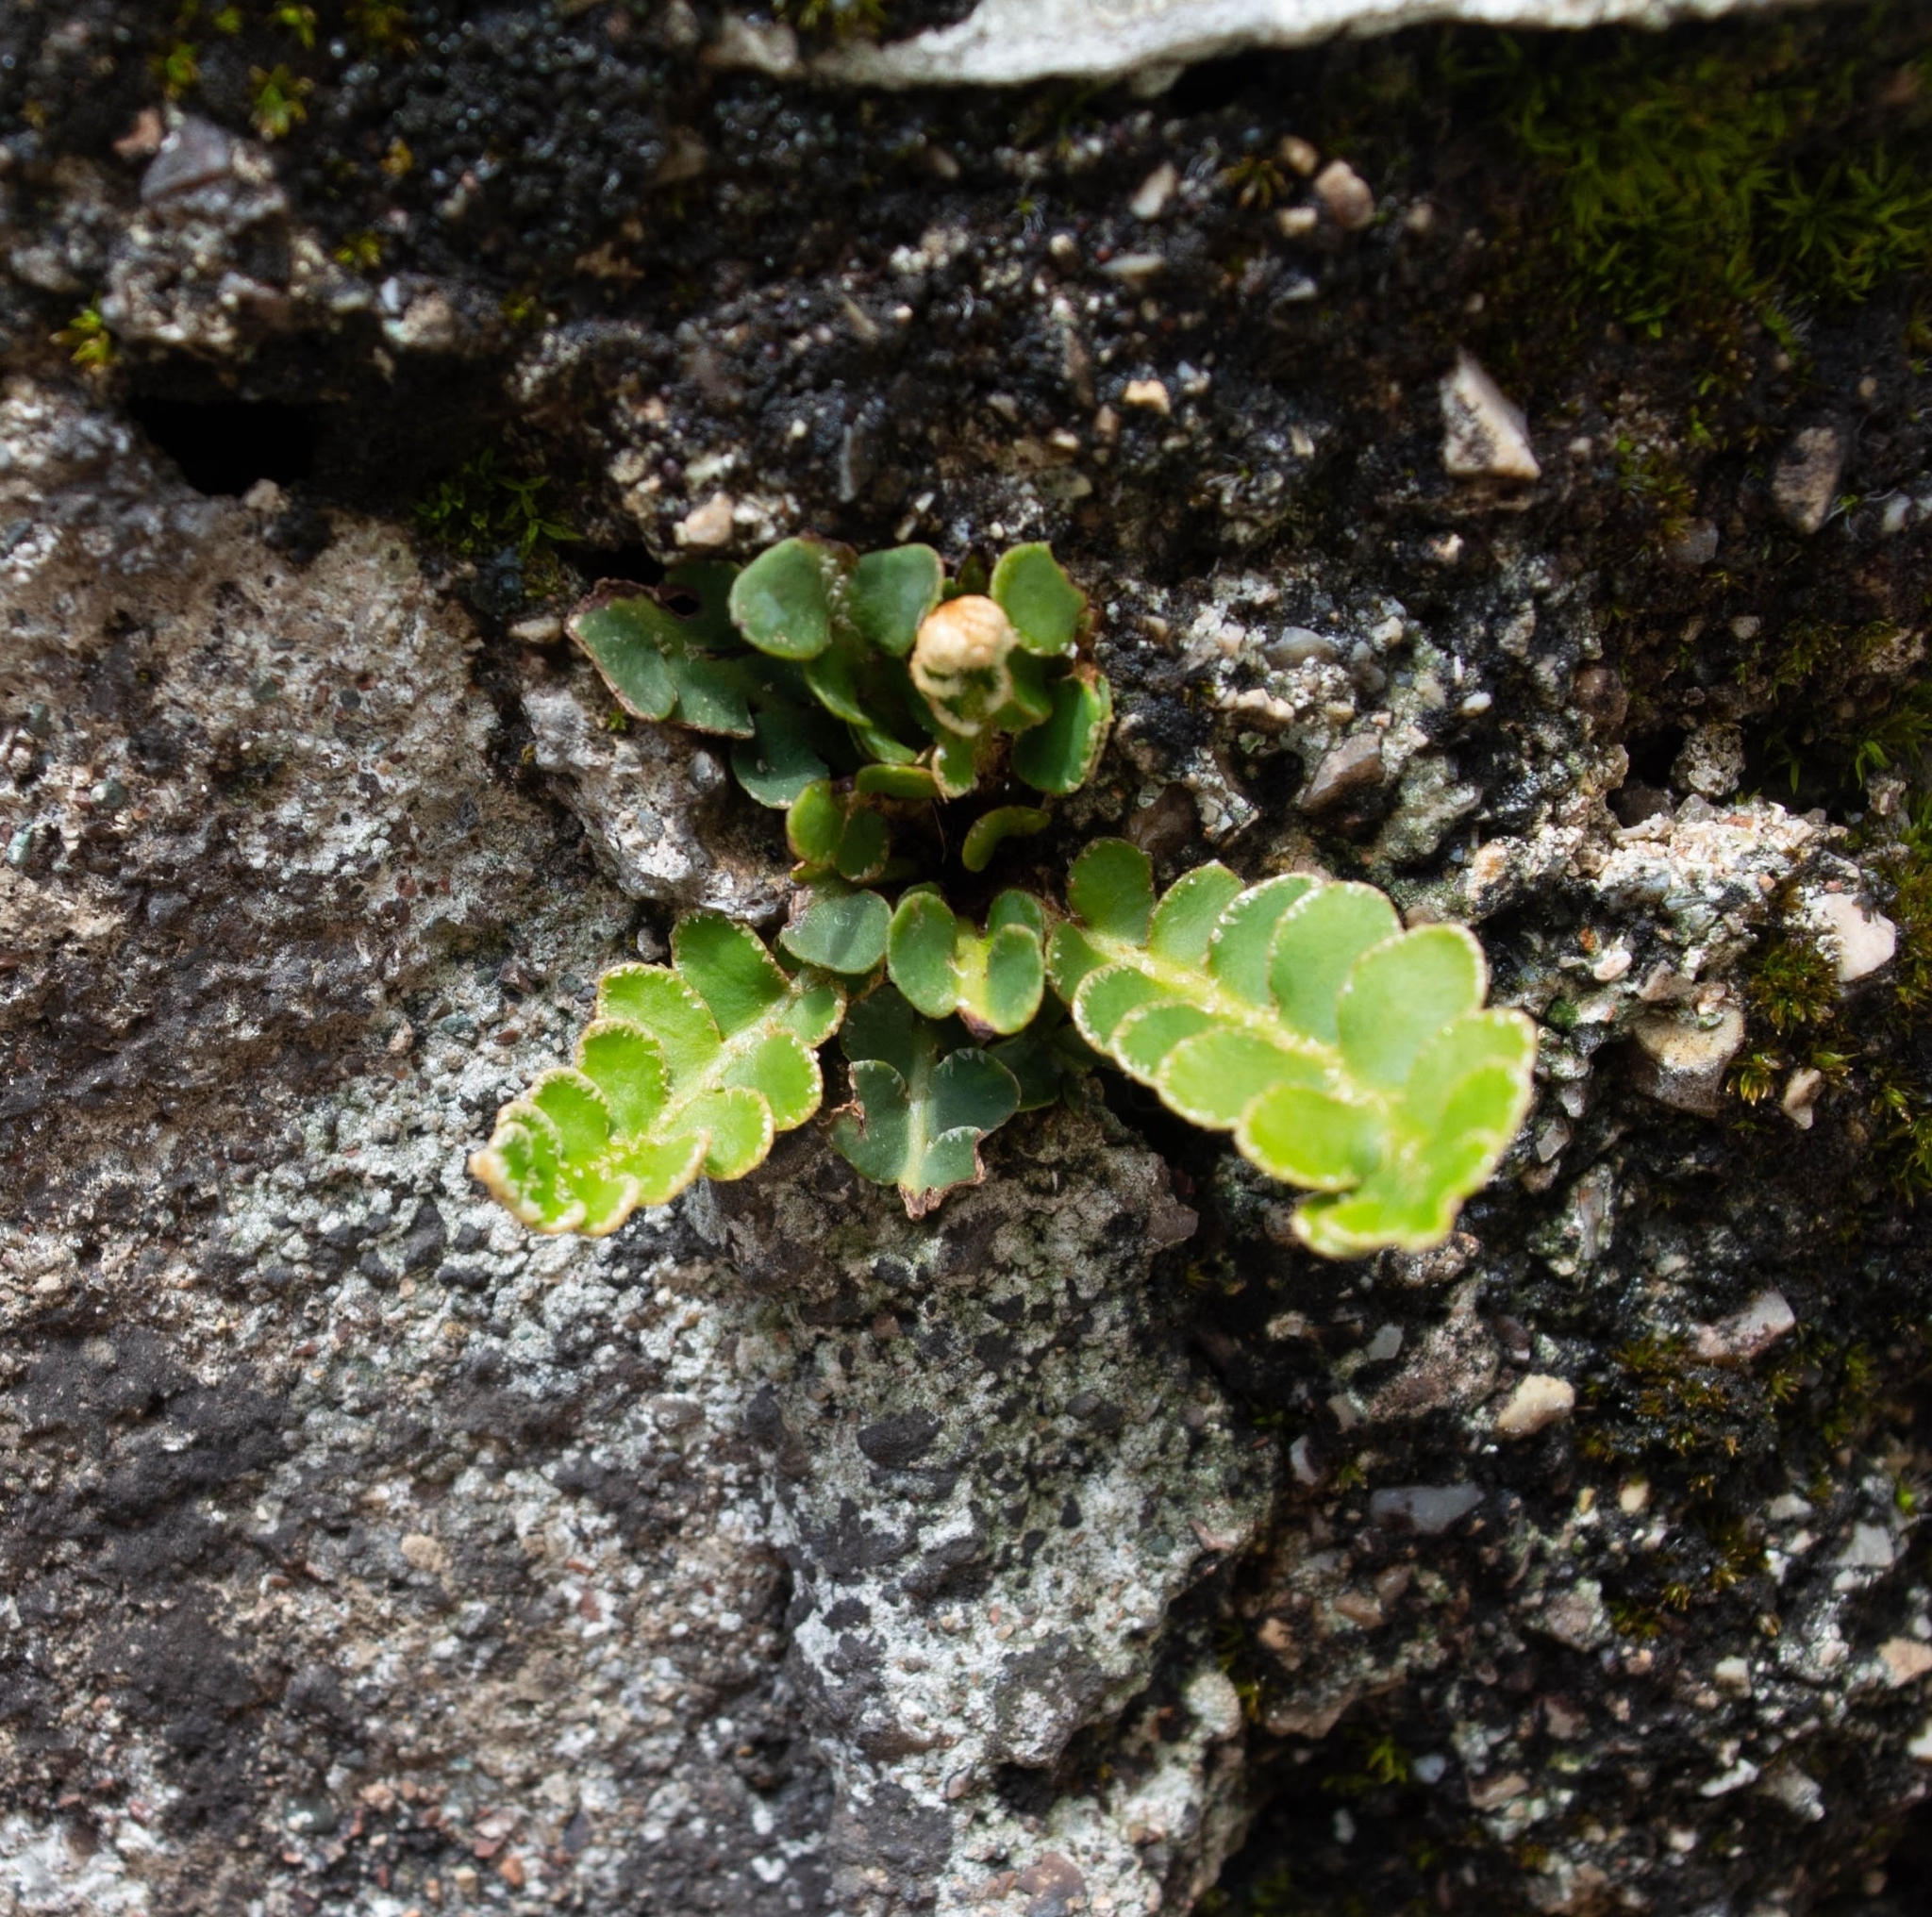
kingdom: Plantae
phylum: Tracheophyta
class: Polypodiopsida
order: Polypodiales
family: Aspleniaceae
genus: Asplenium
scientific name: Asplenium ceterach
